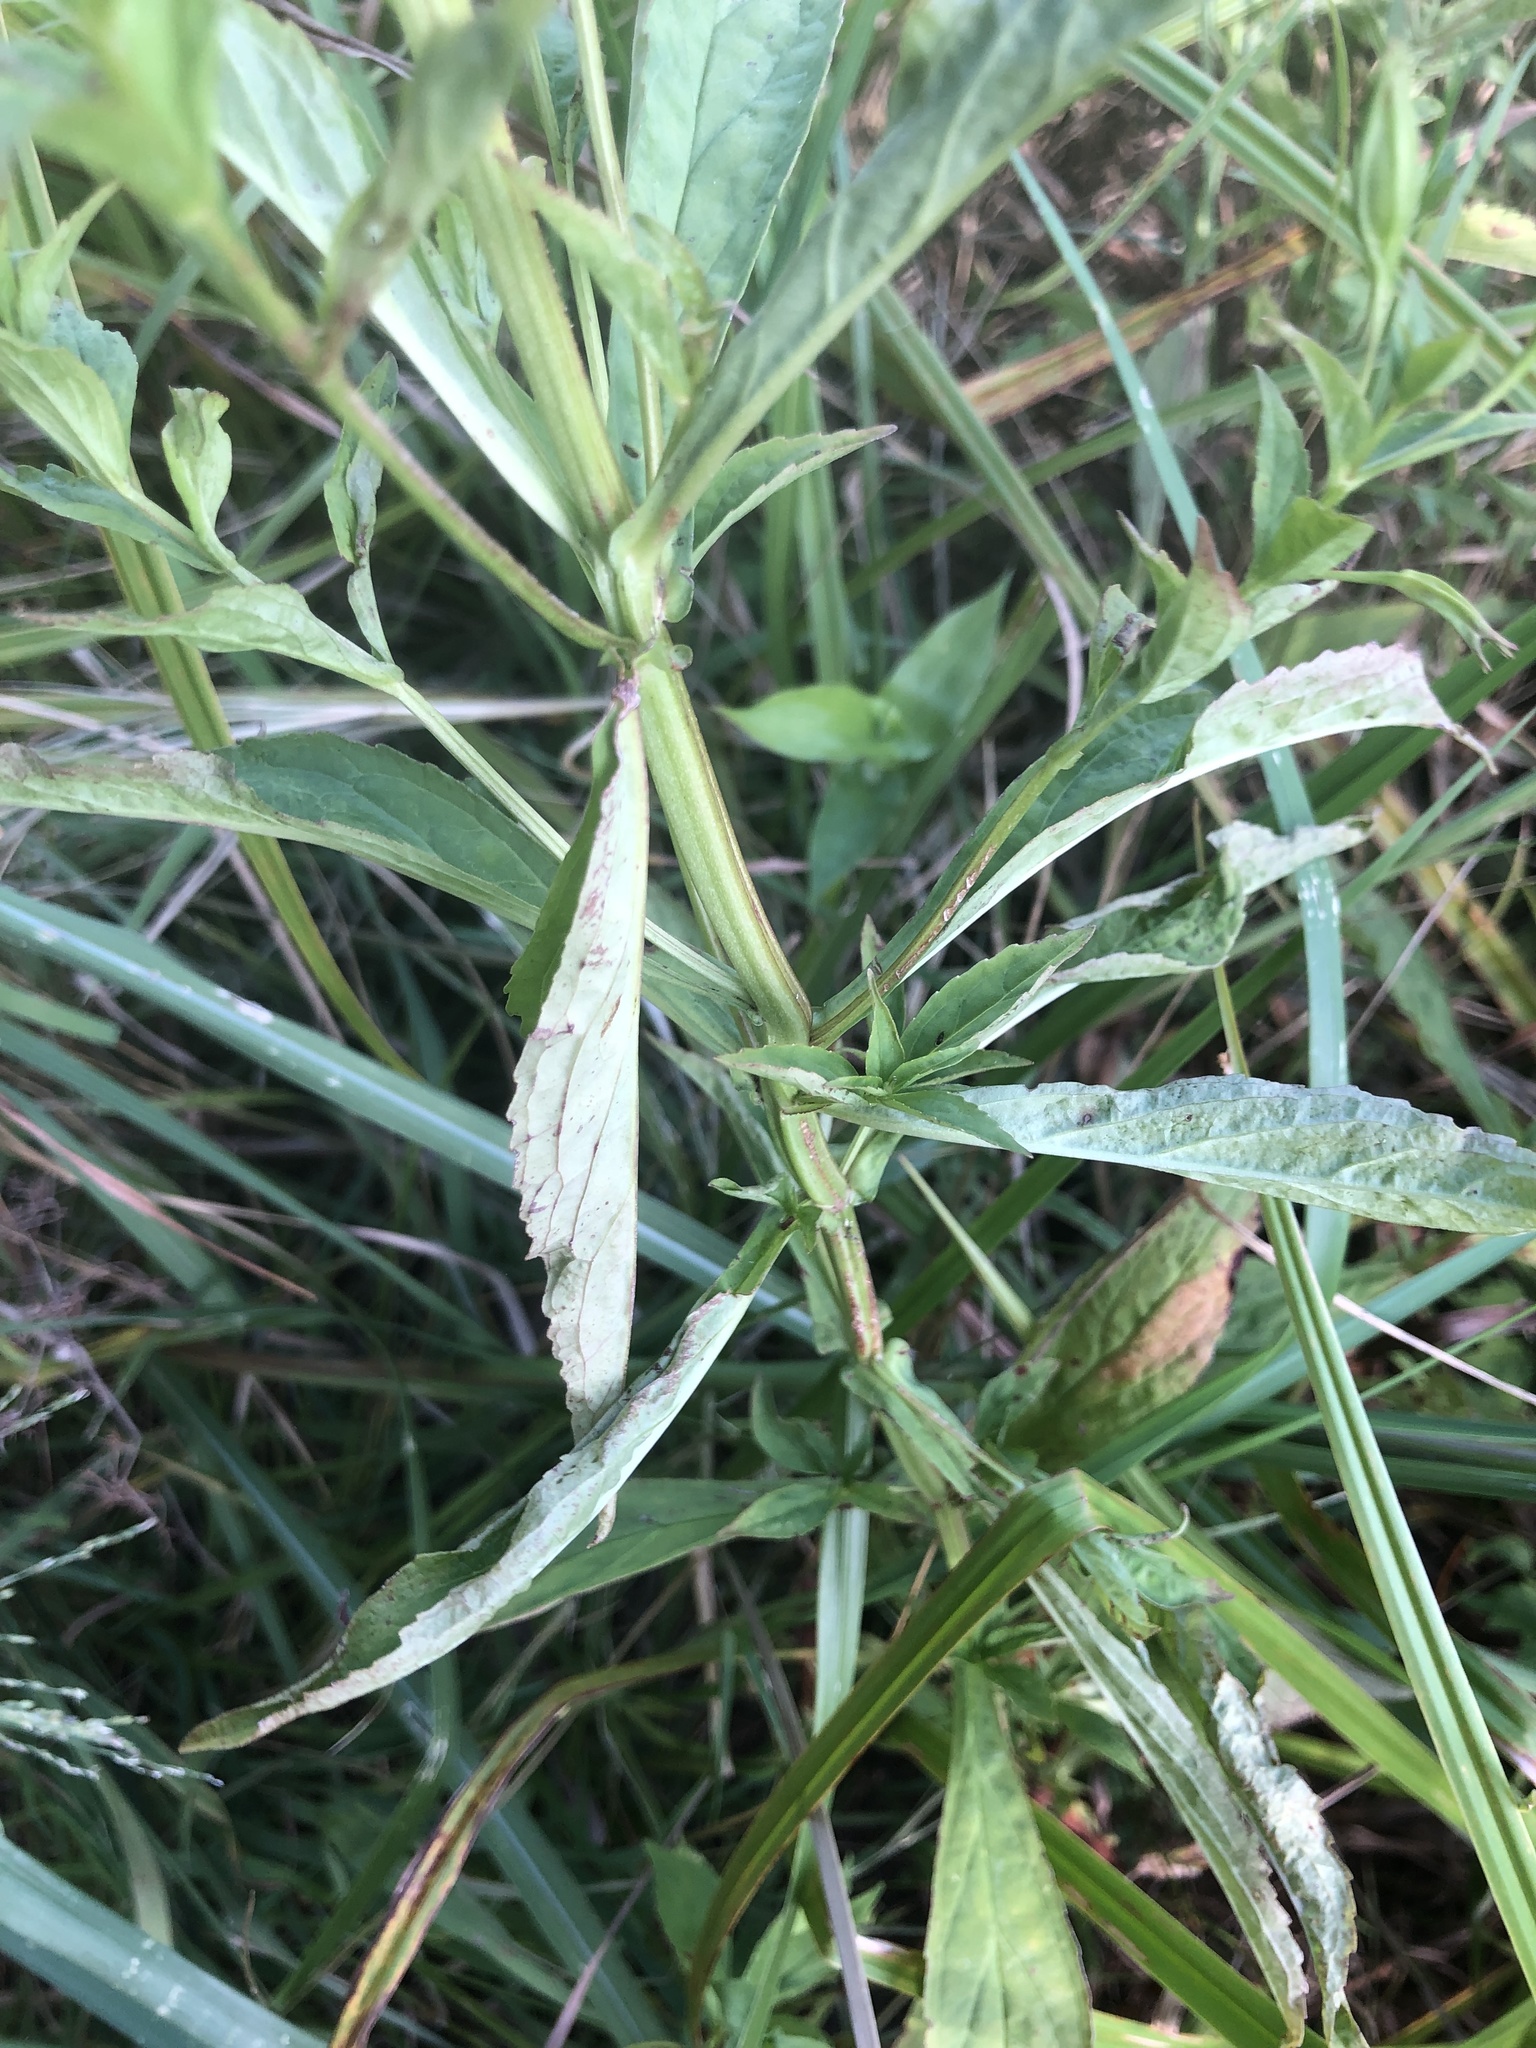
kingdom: Plantae
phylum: Tracheophyta
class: Magnoliopsida
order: Lamiales
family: Phrymaceae
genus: Mimulus
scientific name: Mimulus ringens
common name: Allegheny monkeyflower
